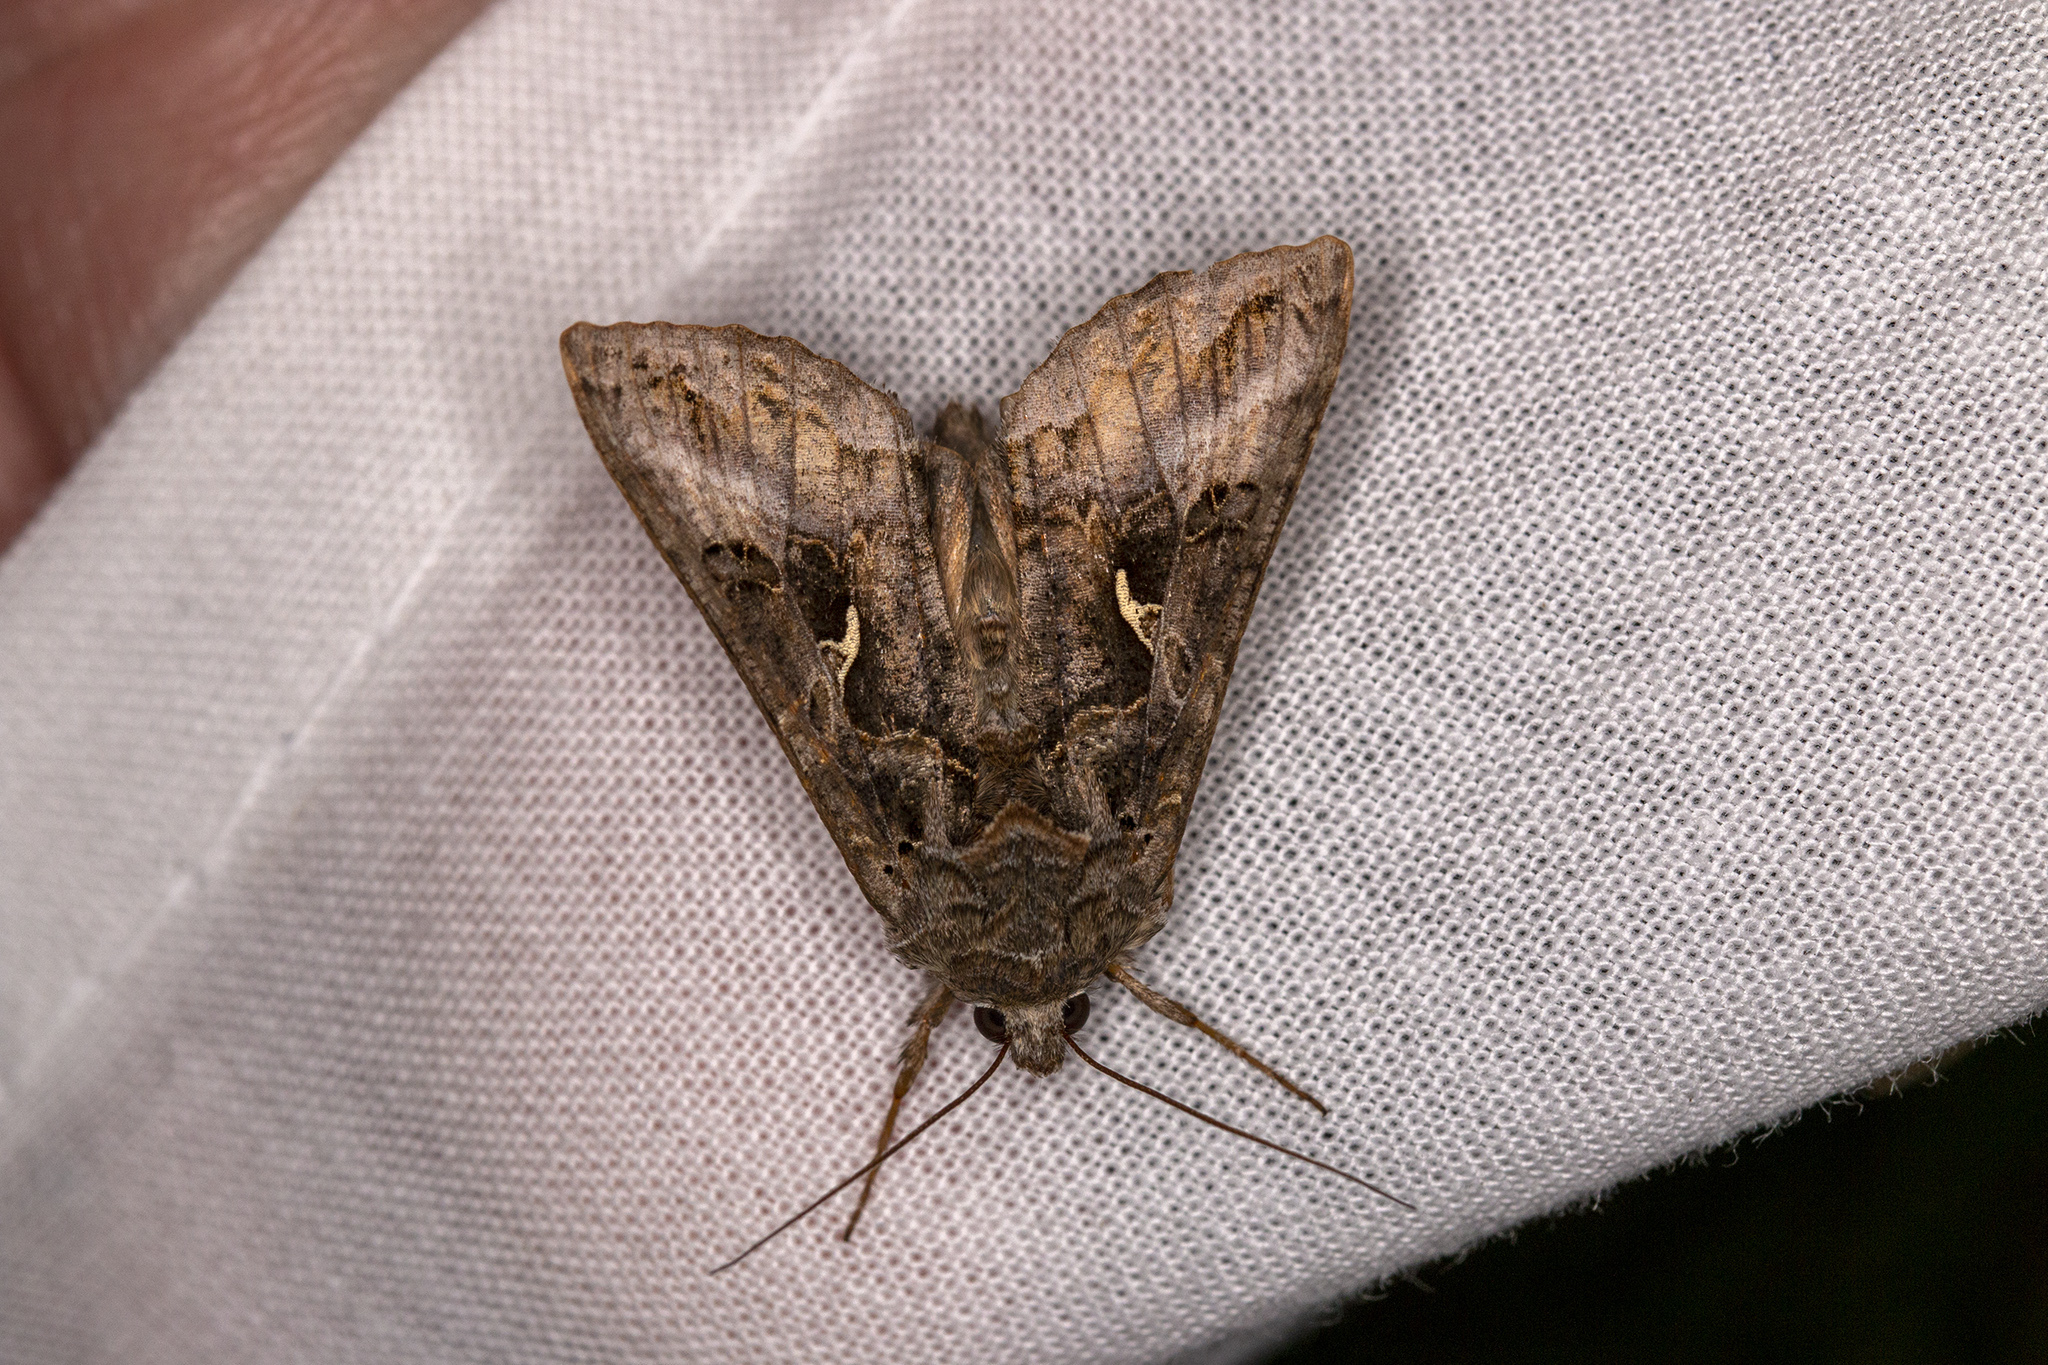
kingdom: Animalia
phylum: Arthropoda
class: Insecta
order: Lepidoptera
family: Noctuidae
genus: Autographa
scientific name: Autographa gamma
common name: Silver y
